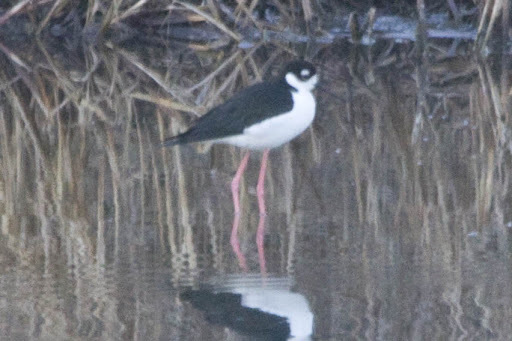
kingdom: Animalia
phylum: Chordata
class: Aves
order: Charadriiformes
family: Recurvirostridae
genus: Himantopus
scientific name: Himantopus mexicanus
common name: Black-necked stilt
